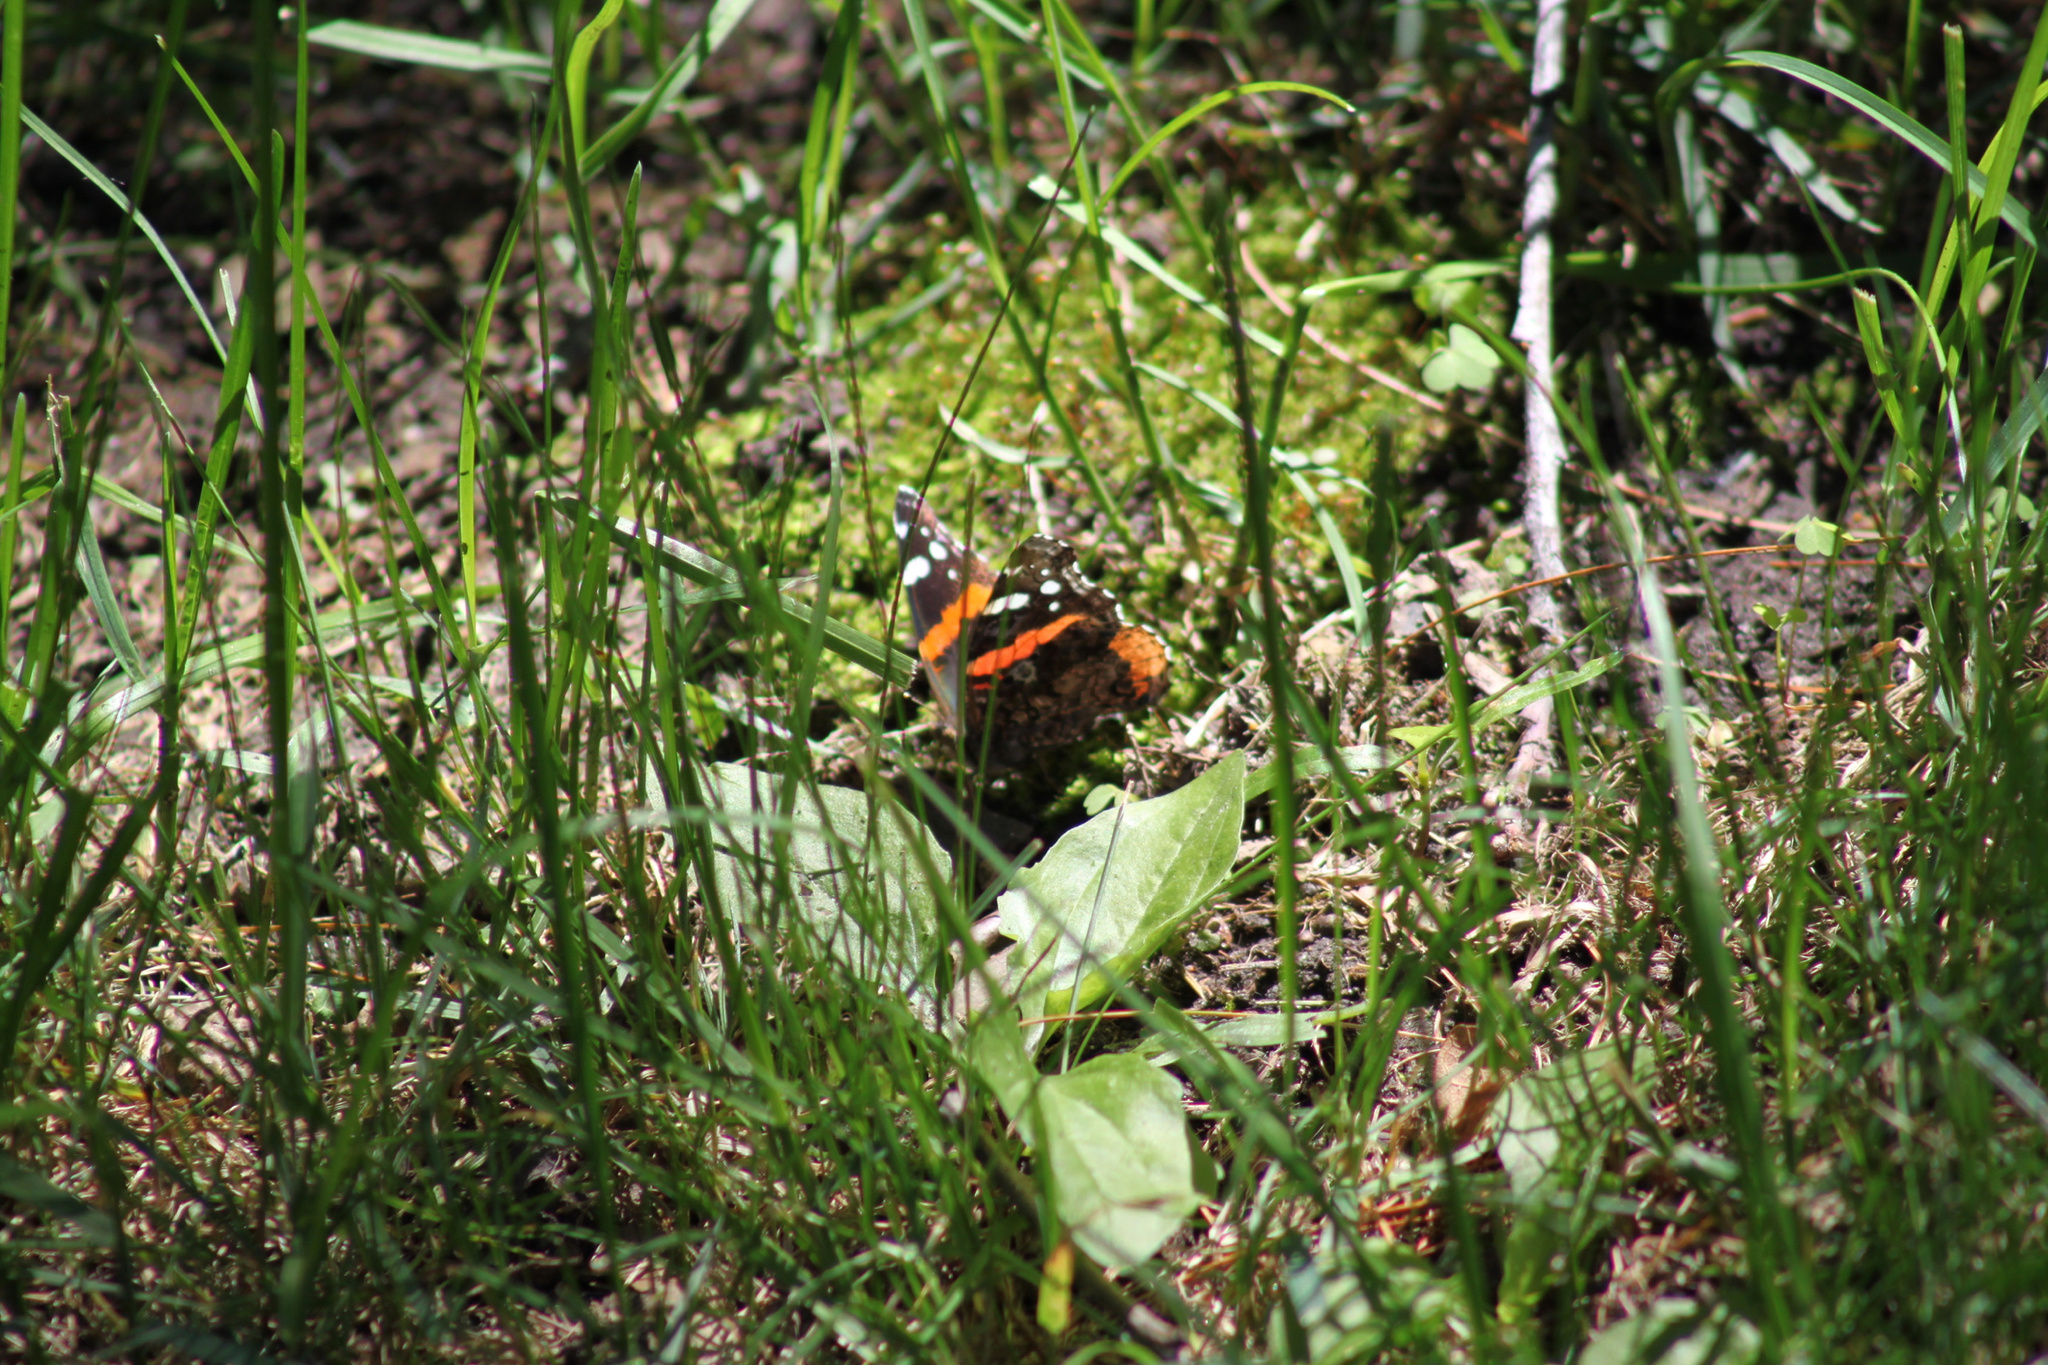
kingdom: Animalia
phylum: Arthropoda
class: Insecta
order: Lepidoptera
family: Nymphalidae
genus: Vanessa
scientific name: Vanessa atalanta
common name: Red admiral
